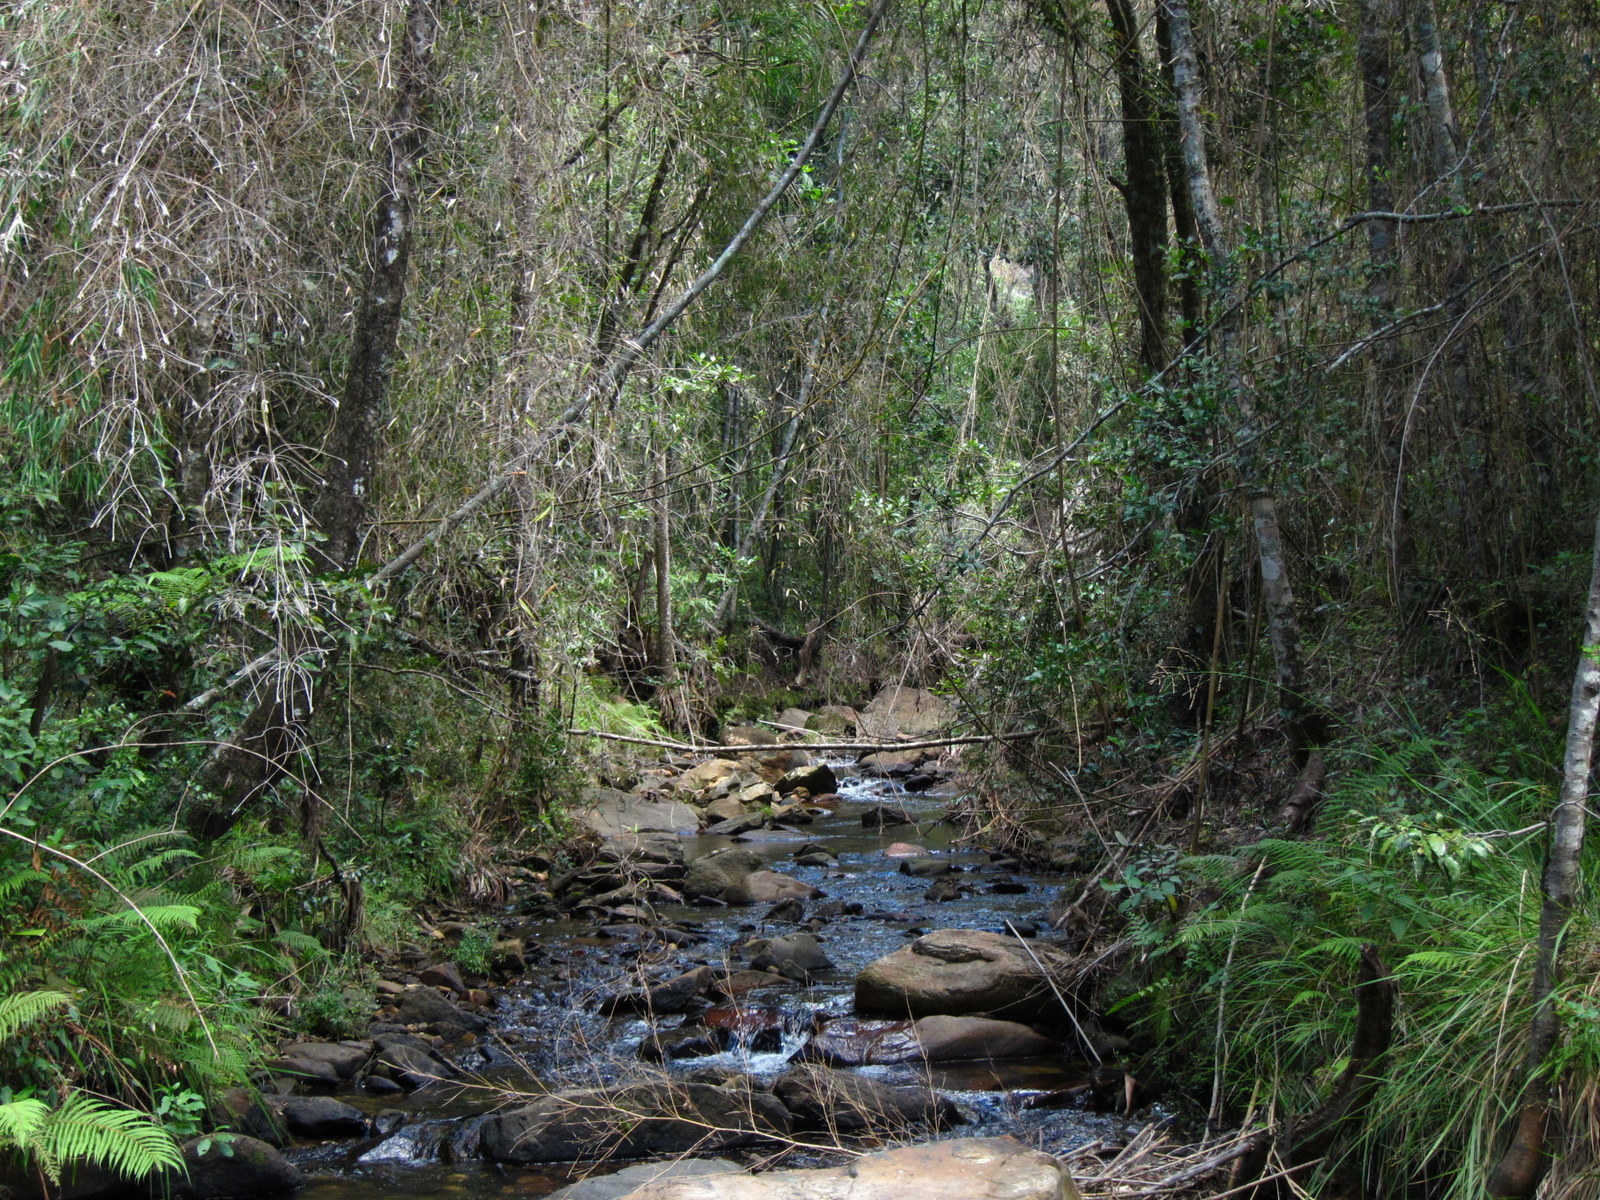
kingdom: Plantae
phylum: Tracheophyta
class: Liliopsida
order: Poales
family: Poaceae
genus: Hickelia
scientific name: Hickelia madagascariensis
